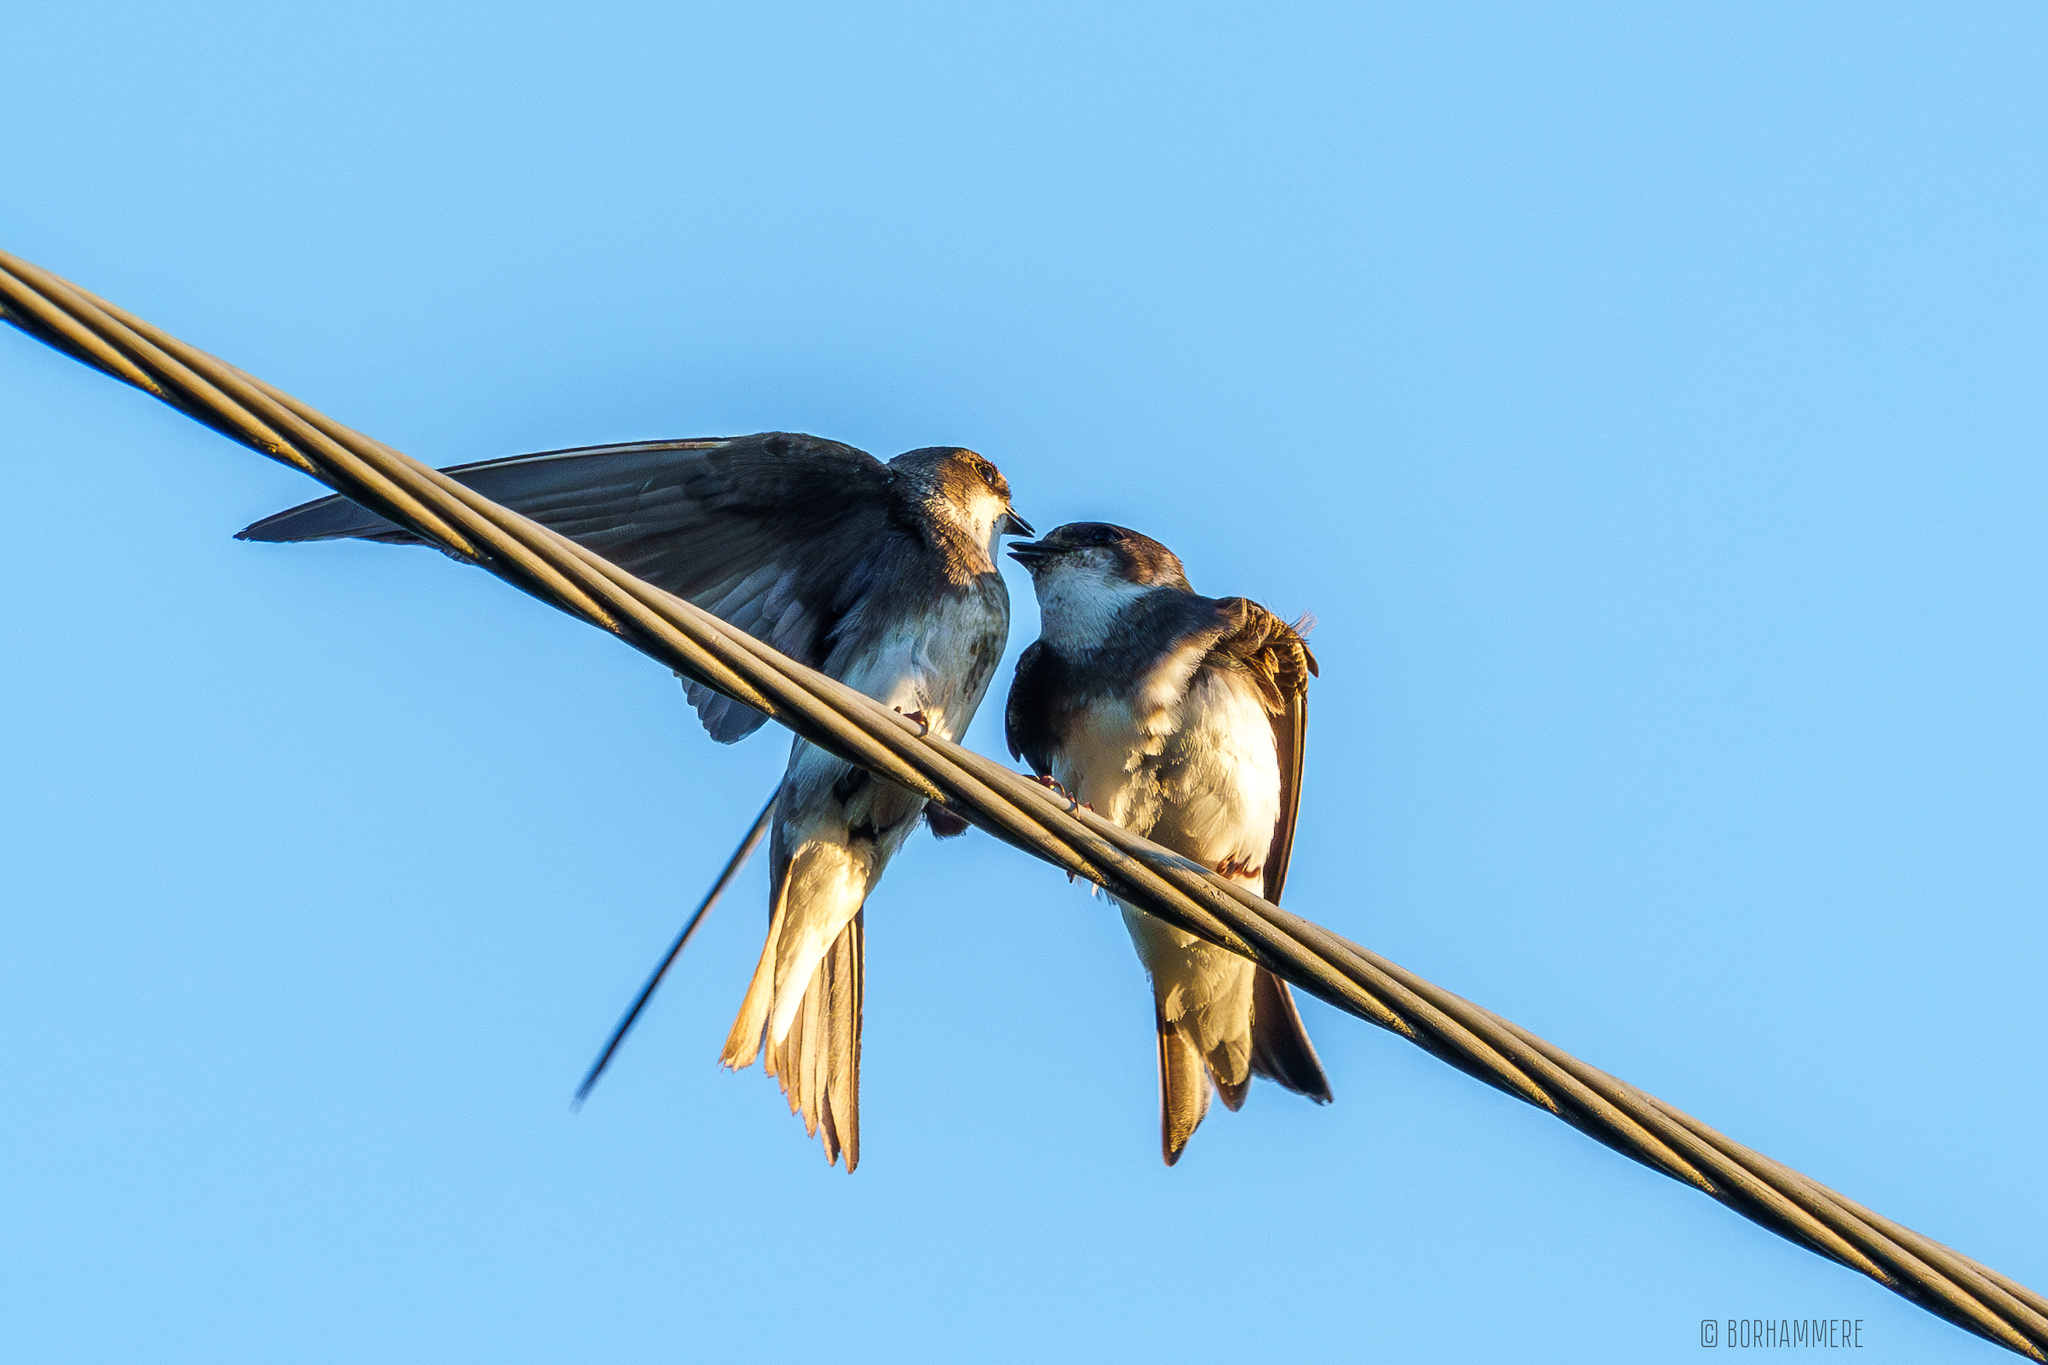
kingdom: Animalia
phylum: Chordata
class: Aves
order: Passeriformes
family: Hirundinidae
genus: Riparia
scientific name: Riparia riparia
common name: Sand martin
